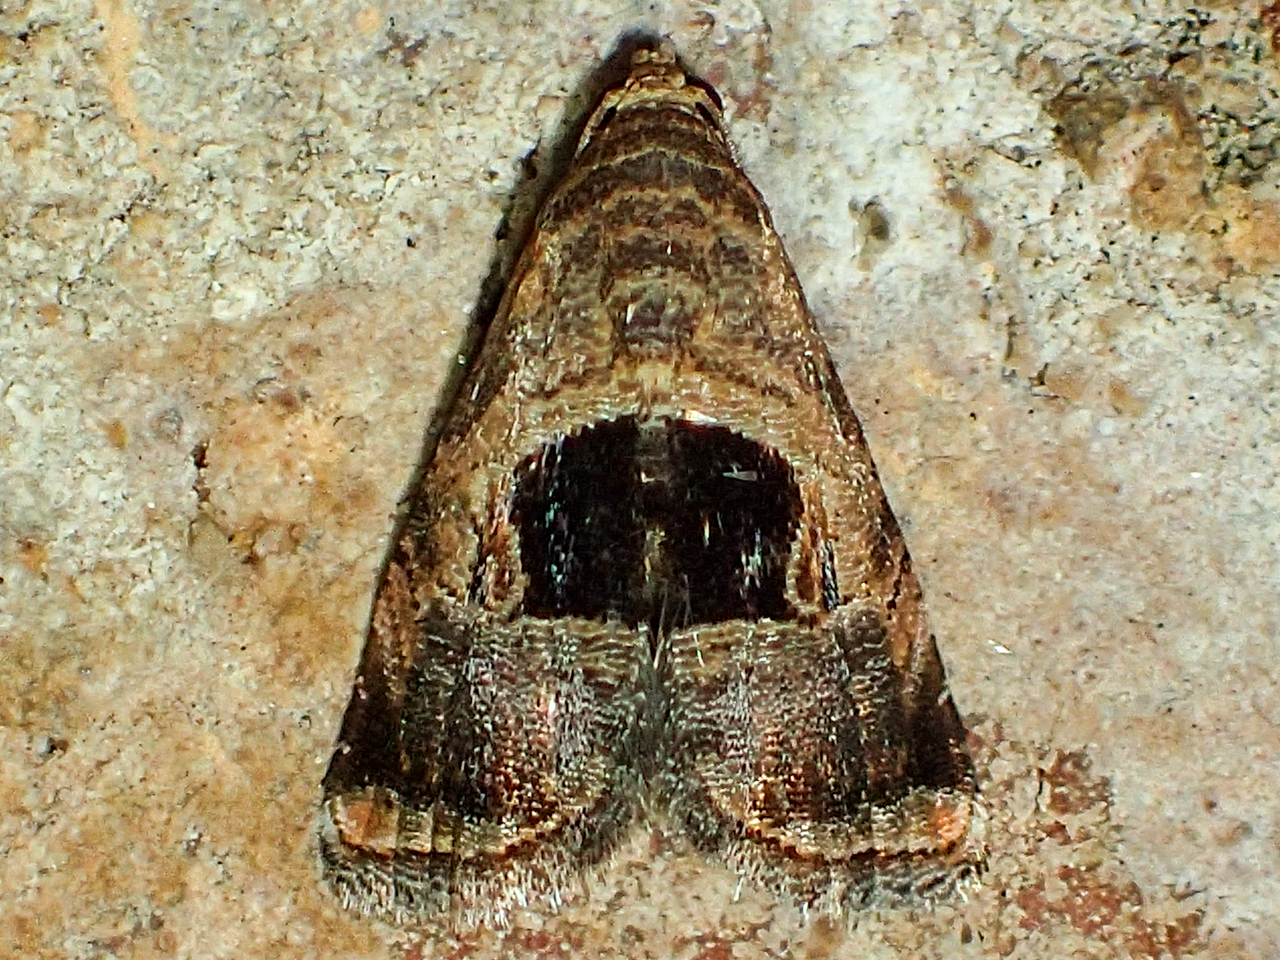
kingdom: Animalia
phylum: Arthropoda
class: Insecta
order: Lepidoptera
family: Noctuidae
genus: Tripudia
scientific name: Tripudia rectangula
